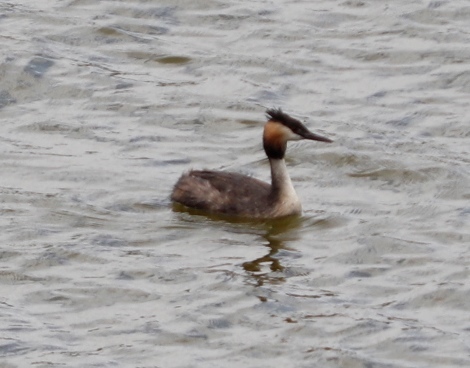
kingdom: Animalia
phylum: Chordata
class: Aves
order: Podicipediformes
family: Podicipedidae
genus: Podiceps
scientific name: Podiceps cristatus
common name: Great crested grebe
